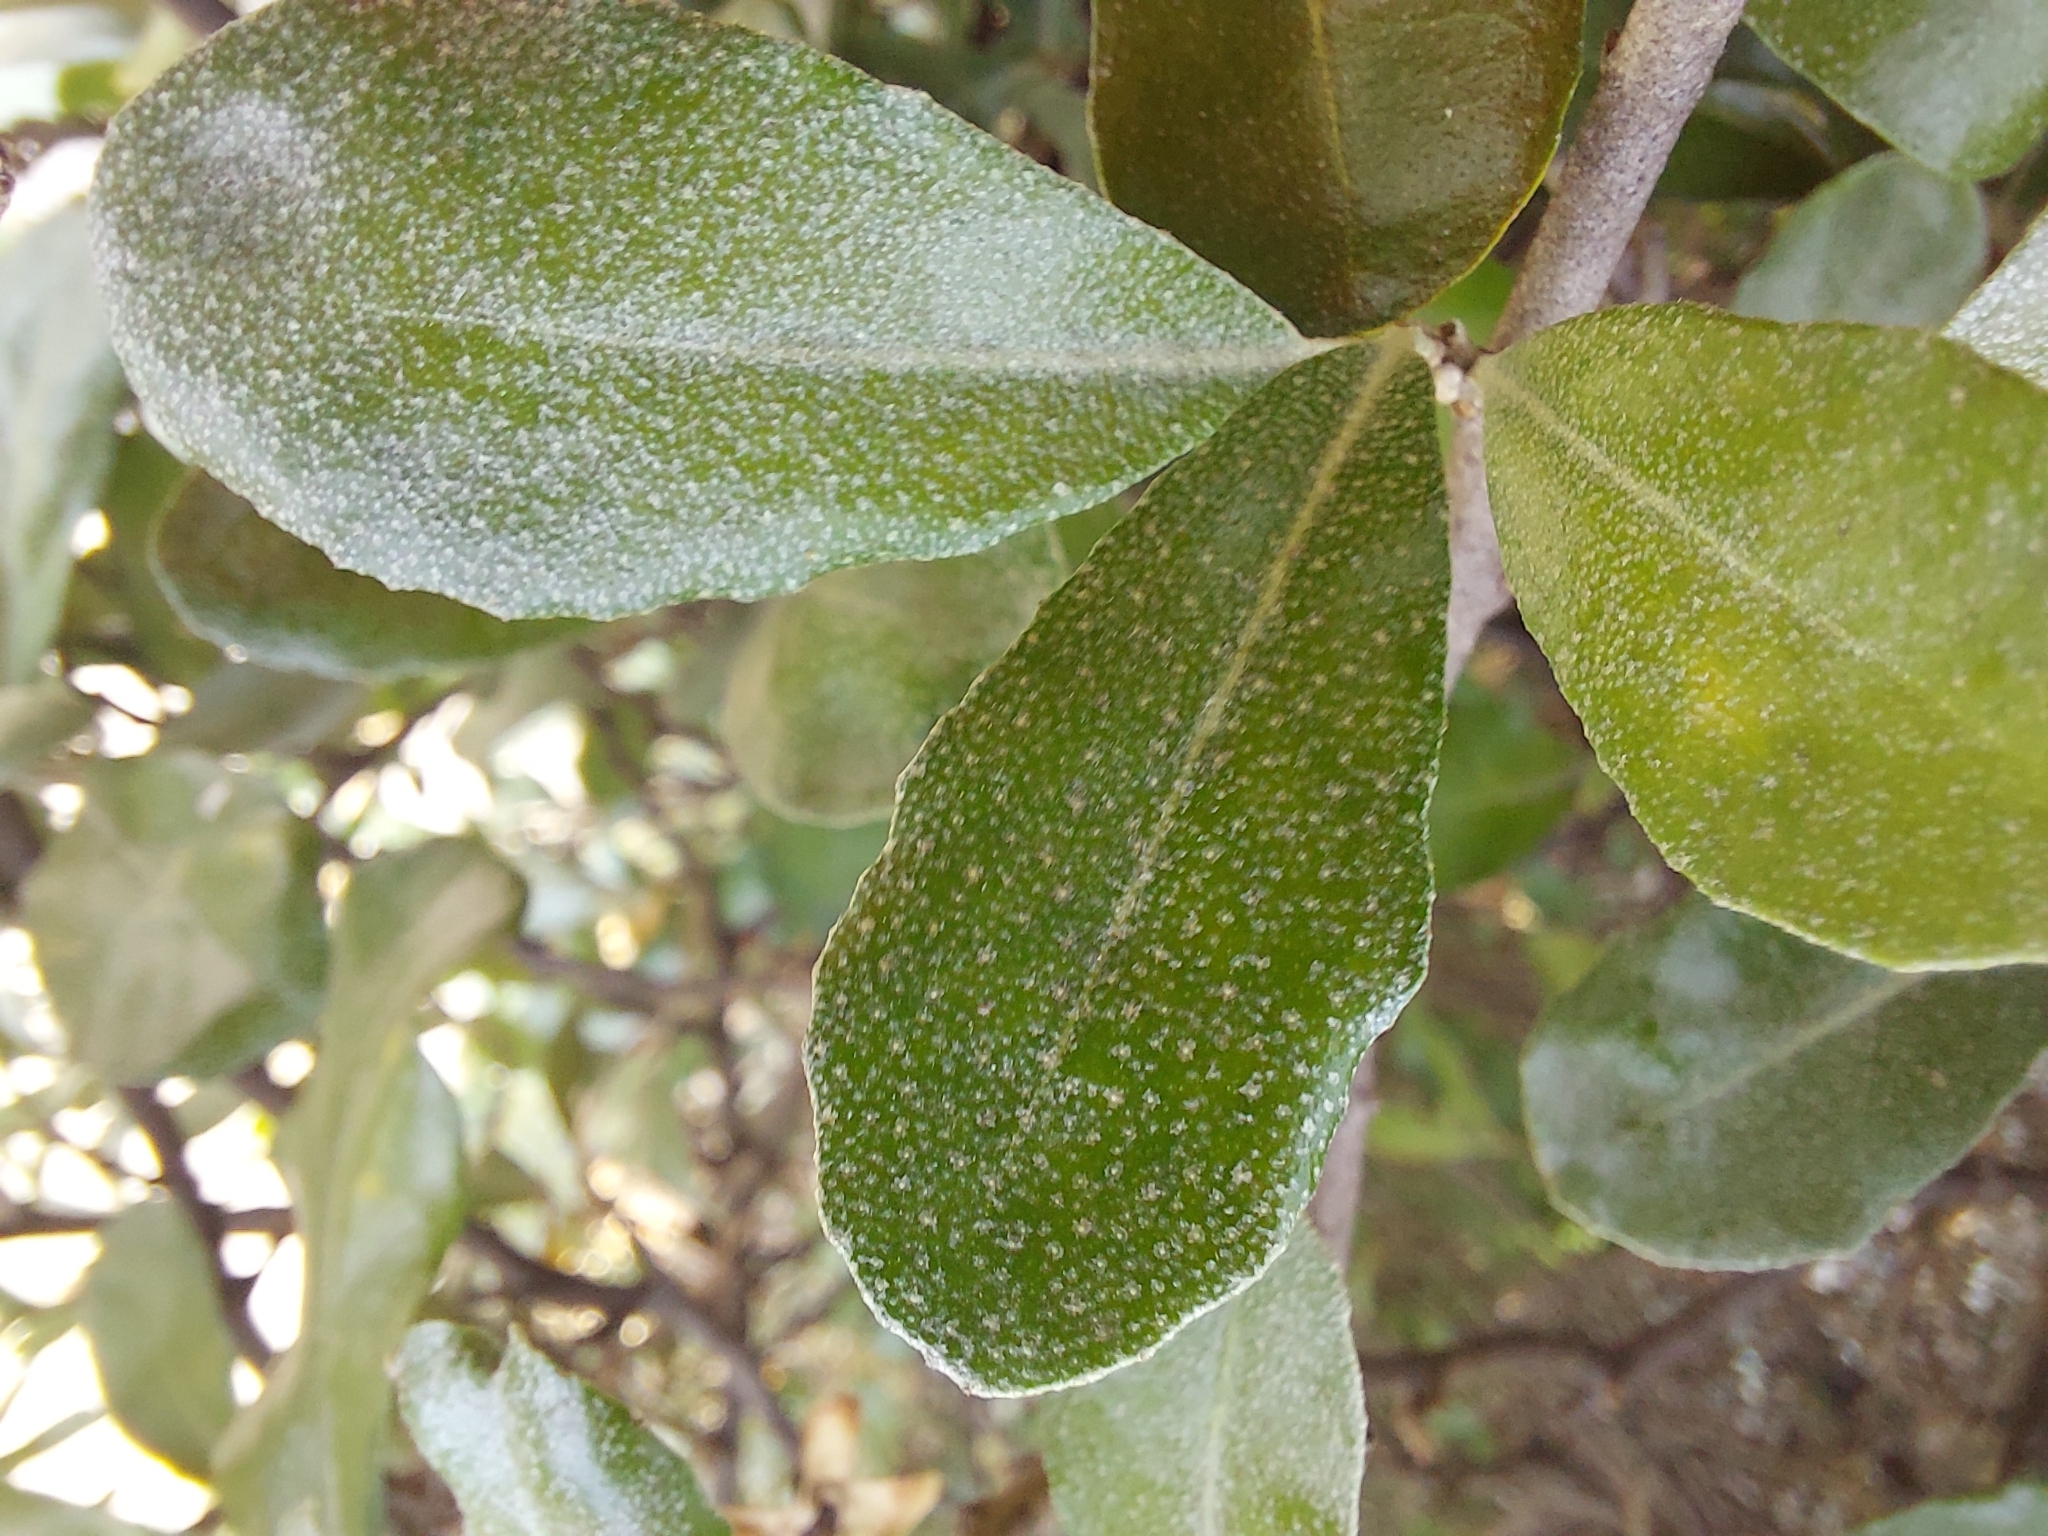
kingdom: Plantae
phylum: Tracheophyta
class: Magnoliopsida
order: Rosales
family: Elaeagnaceae
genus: Elaeagnus
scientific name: Elaeagnus oldhamii
